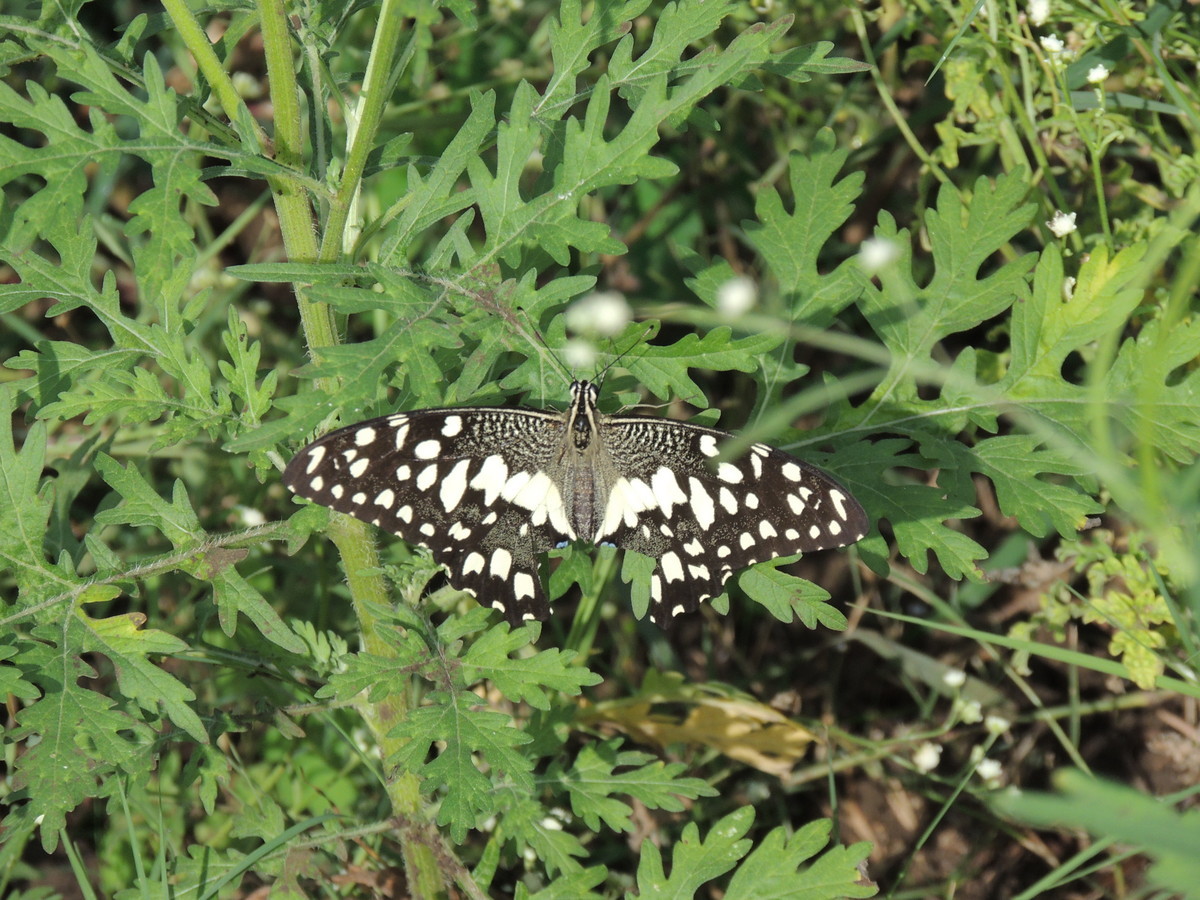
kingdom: Animalia
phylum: Arthropoda
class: Insecta
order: Lepidoptera
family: Papilionidae
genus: Papilio
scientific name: Papilio demoleus
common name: Lime butterfly
